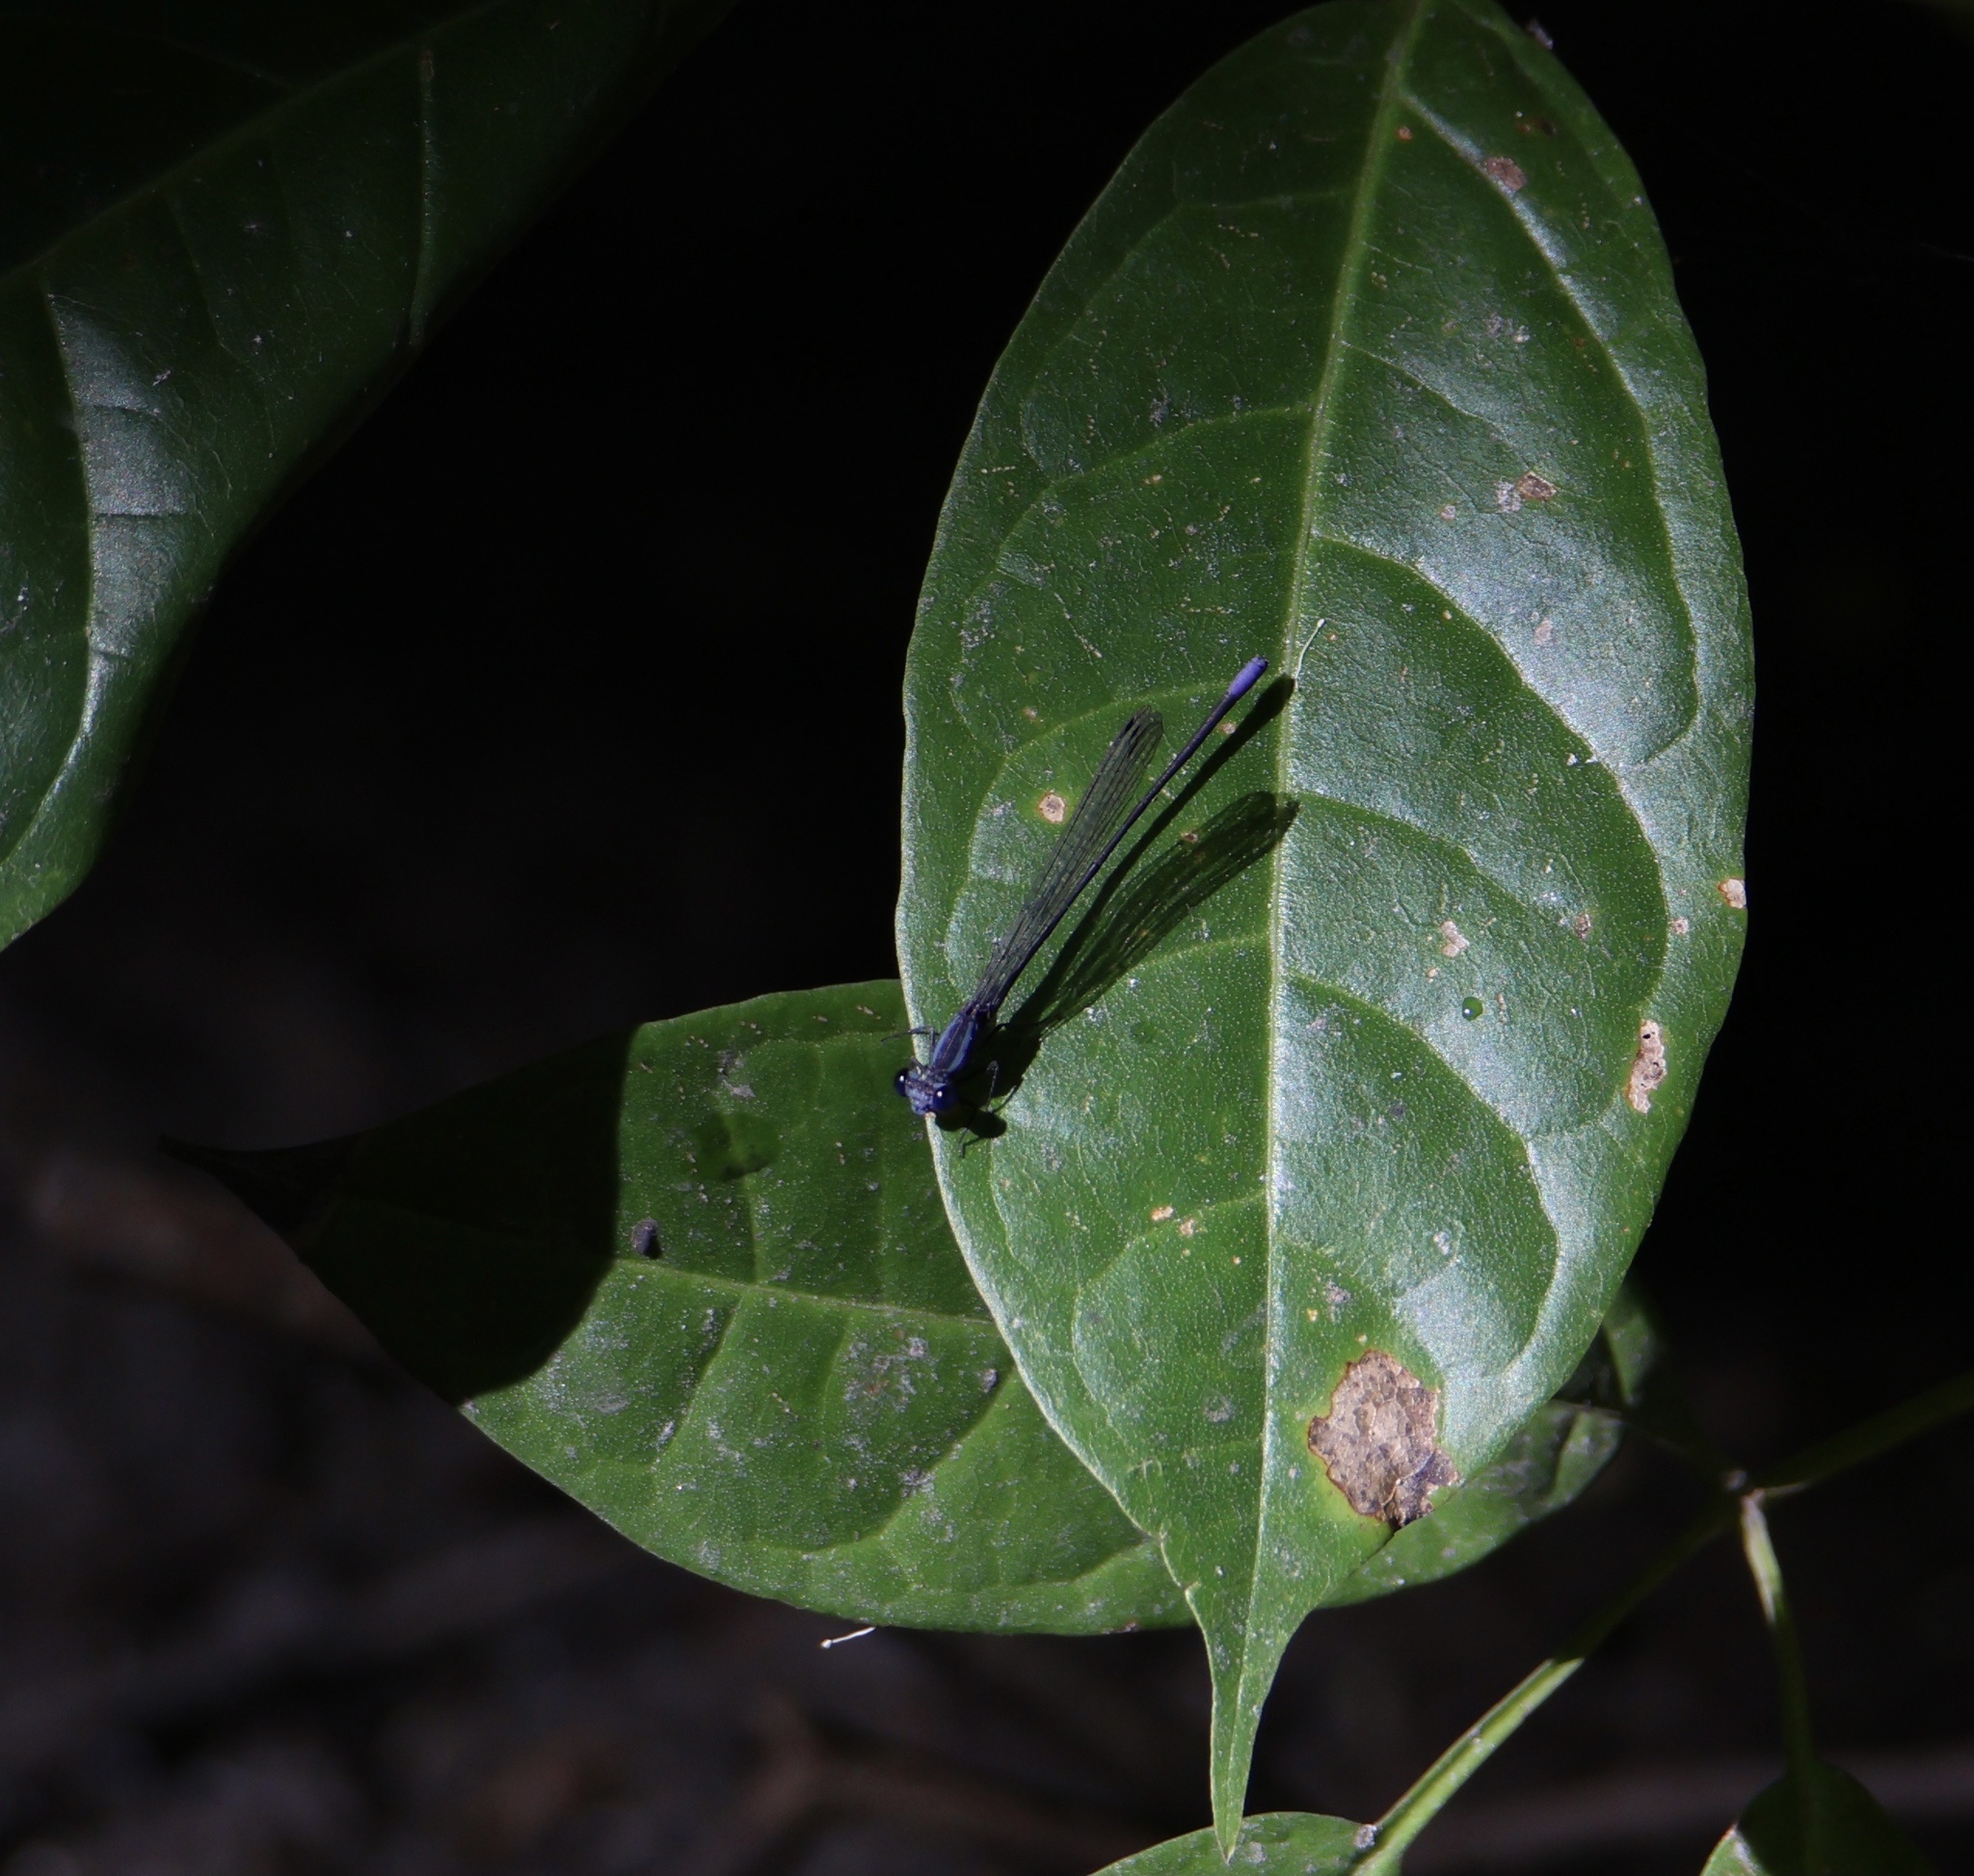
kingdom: Animalia
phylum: Arthropoda
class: Insecta
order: Odonata
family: Coenagrionidae
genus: Argia
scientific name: Argia pulla
